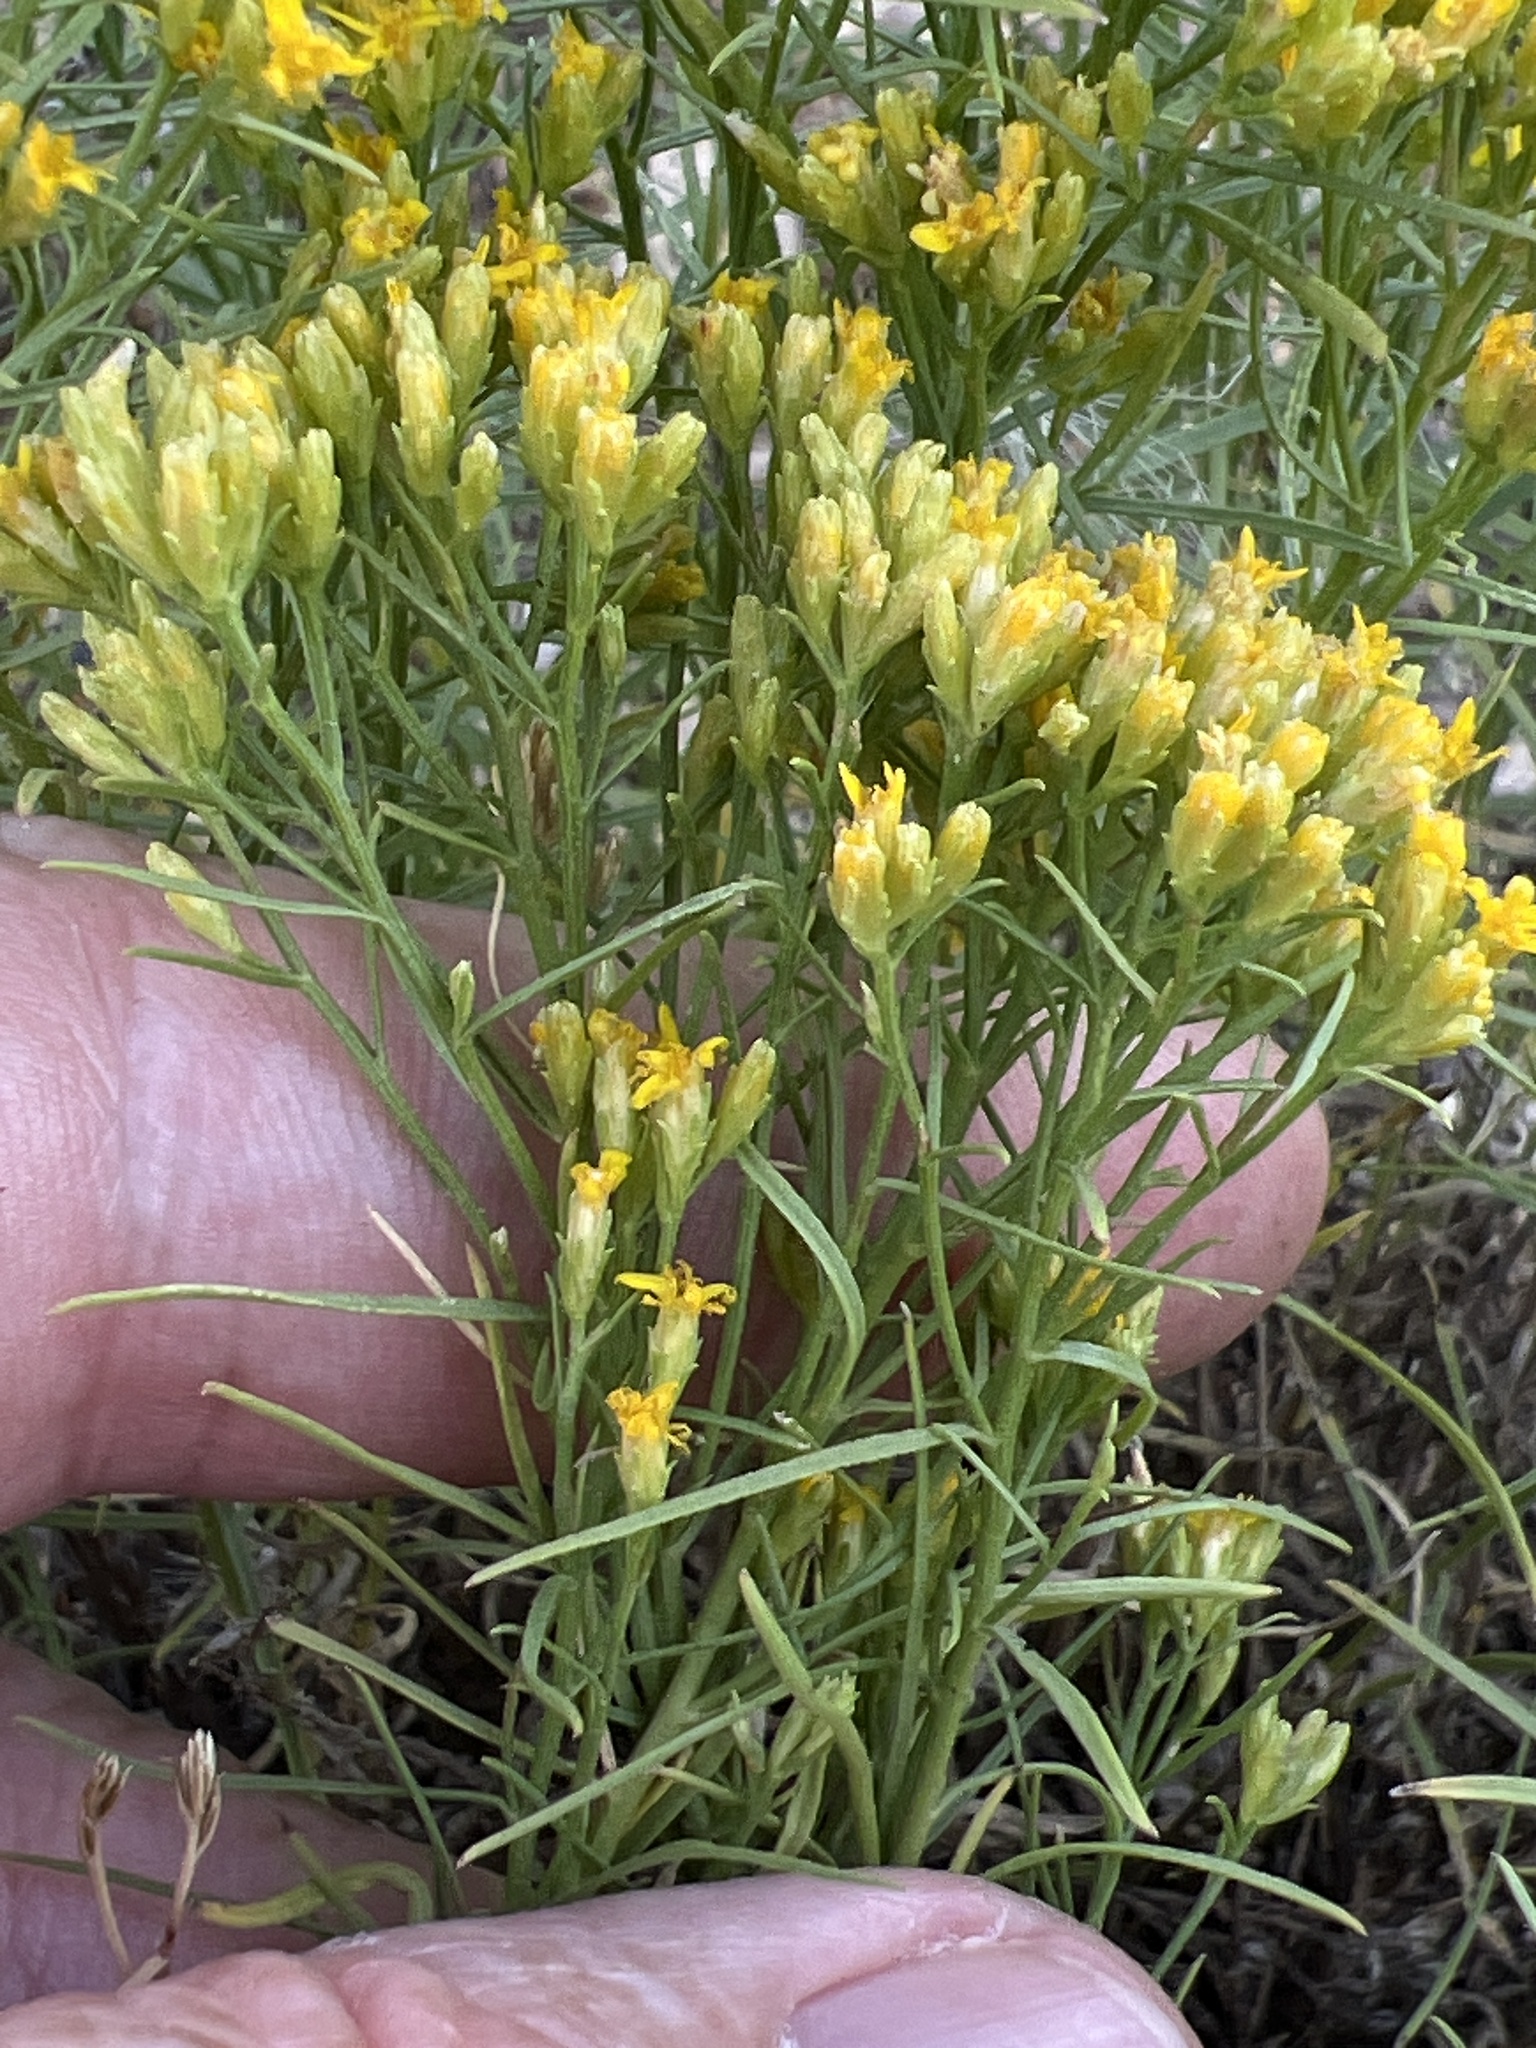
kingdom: Plantae
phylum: Tracheophyta
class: Magnoliopsida
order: Asterales
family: Asteraceae
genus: Gutierrezia
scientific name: Gutierrezia sarothrae
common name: Broom snakeweed
